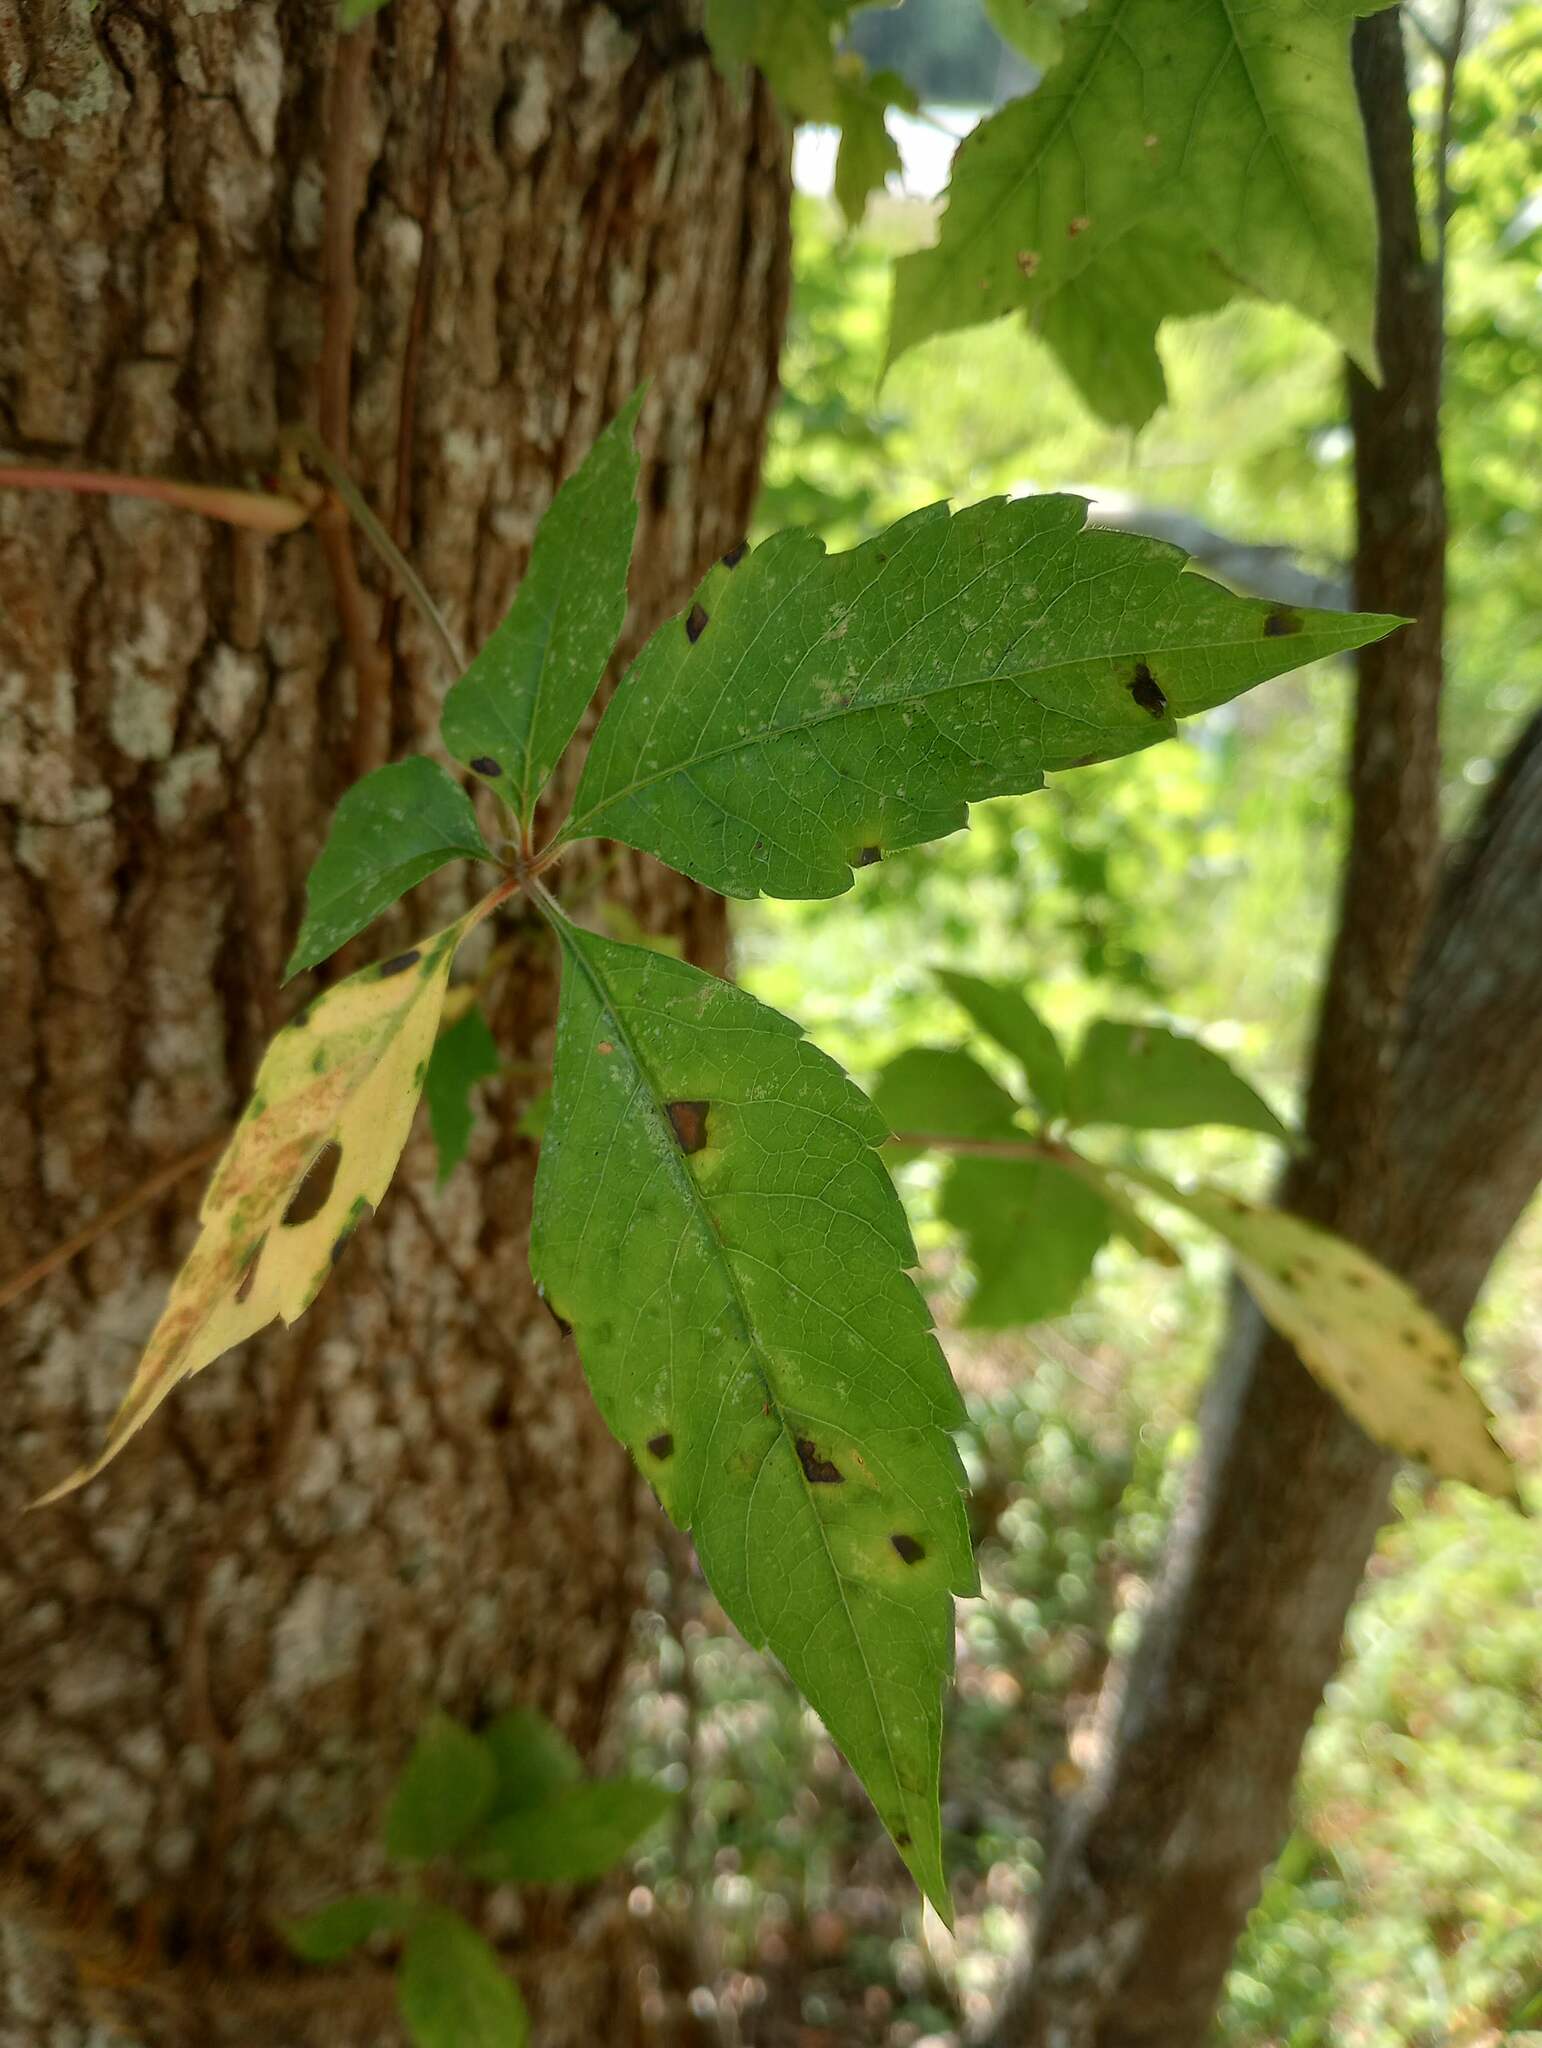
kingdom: Plantae
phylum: Tracheophyta
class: Magnoliopsida
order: Vitales
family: Vitaceae
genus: Parthenocissus
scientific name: Parthenocissus quinquefolia
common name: Virginia-creeper
